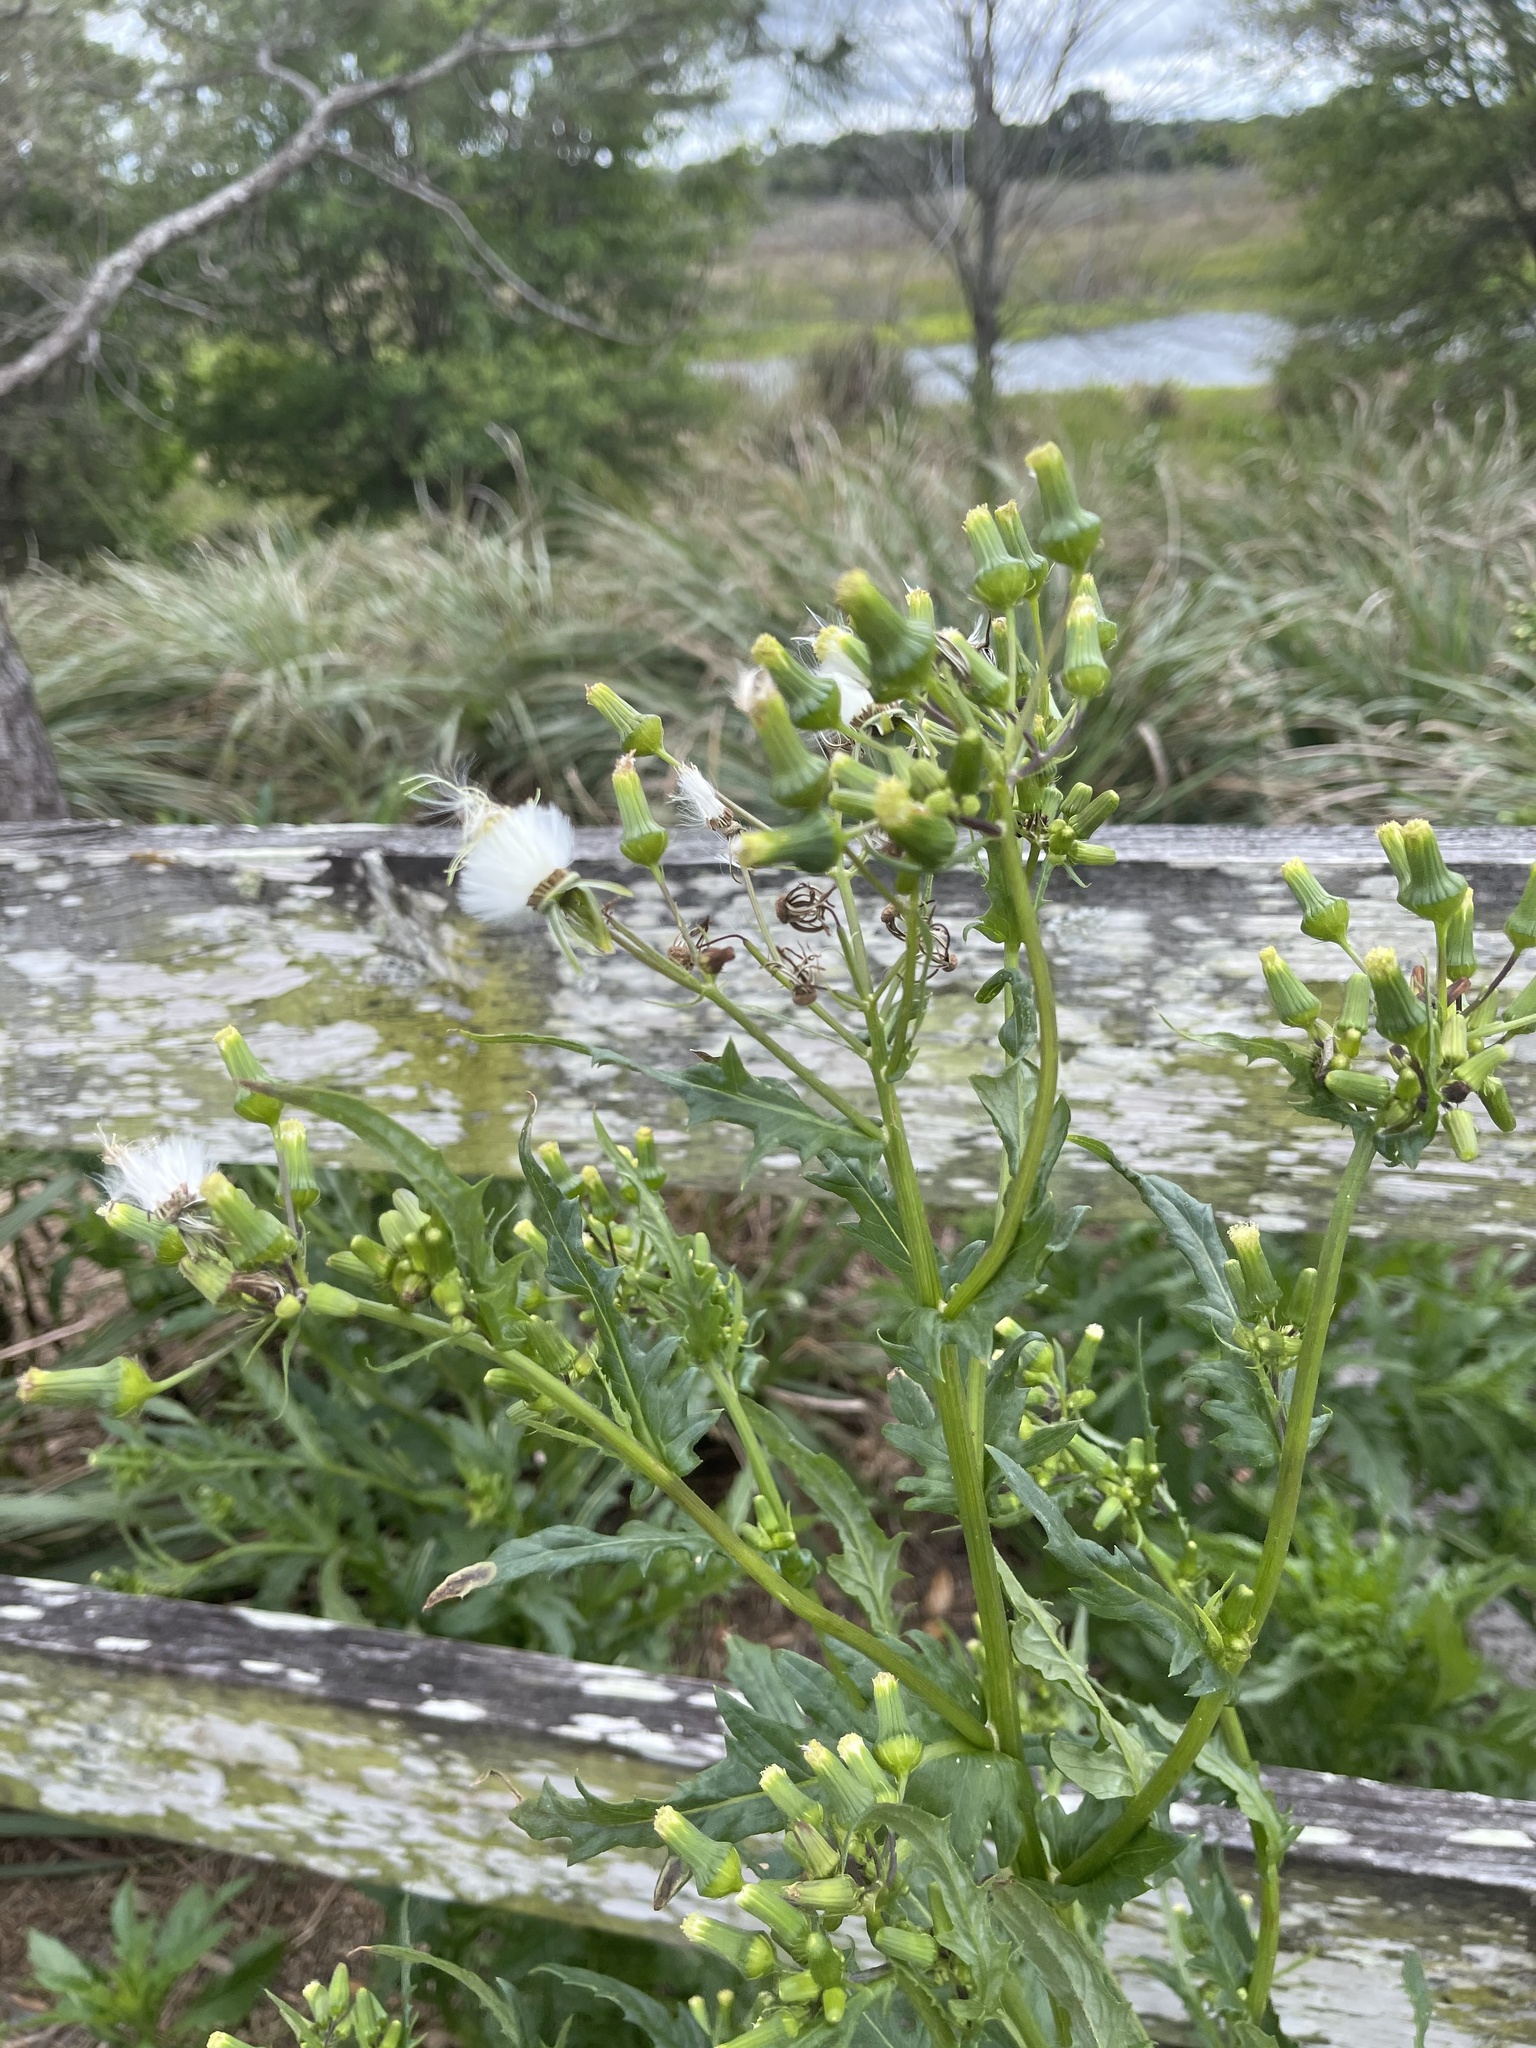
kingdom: Plantae
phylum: Tracheophyta
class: Magnoliopsida
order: Asterales
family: Asteraceae
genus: Erechtites
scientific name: Erechtites hieraciifolius
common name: American burnweed
